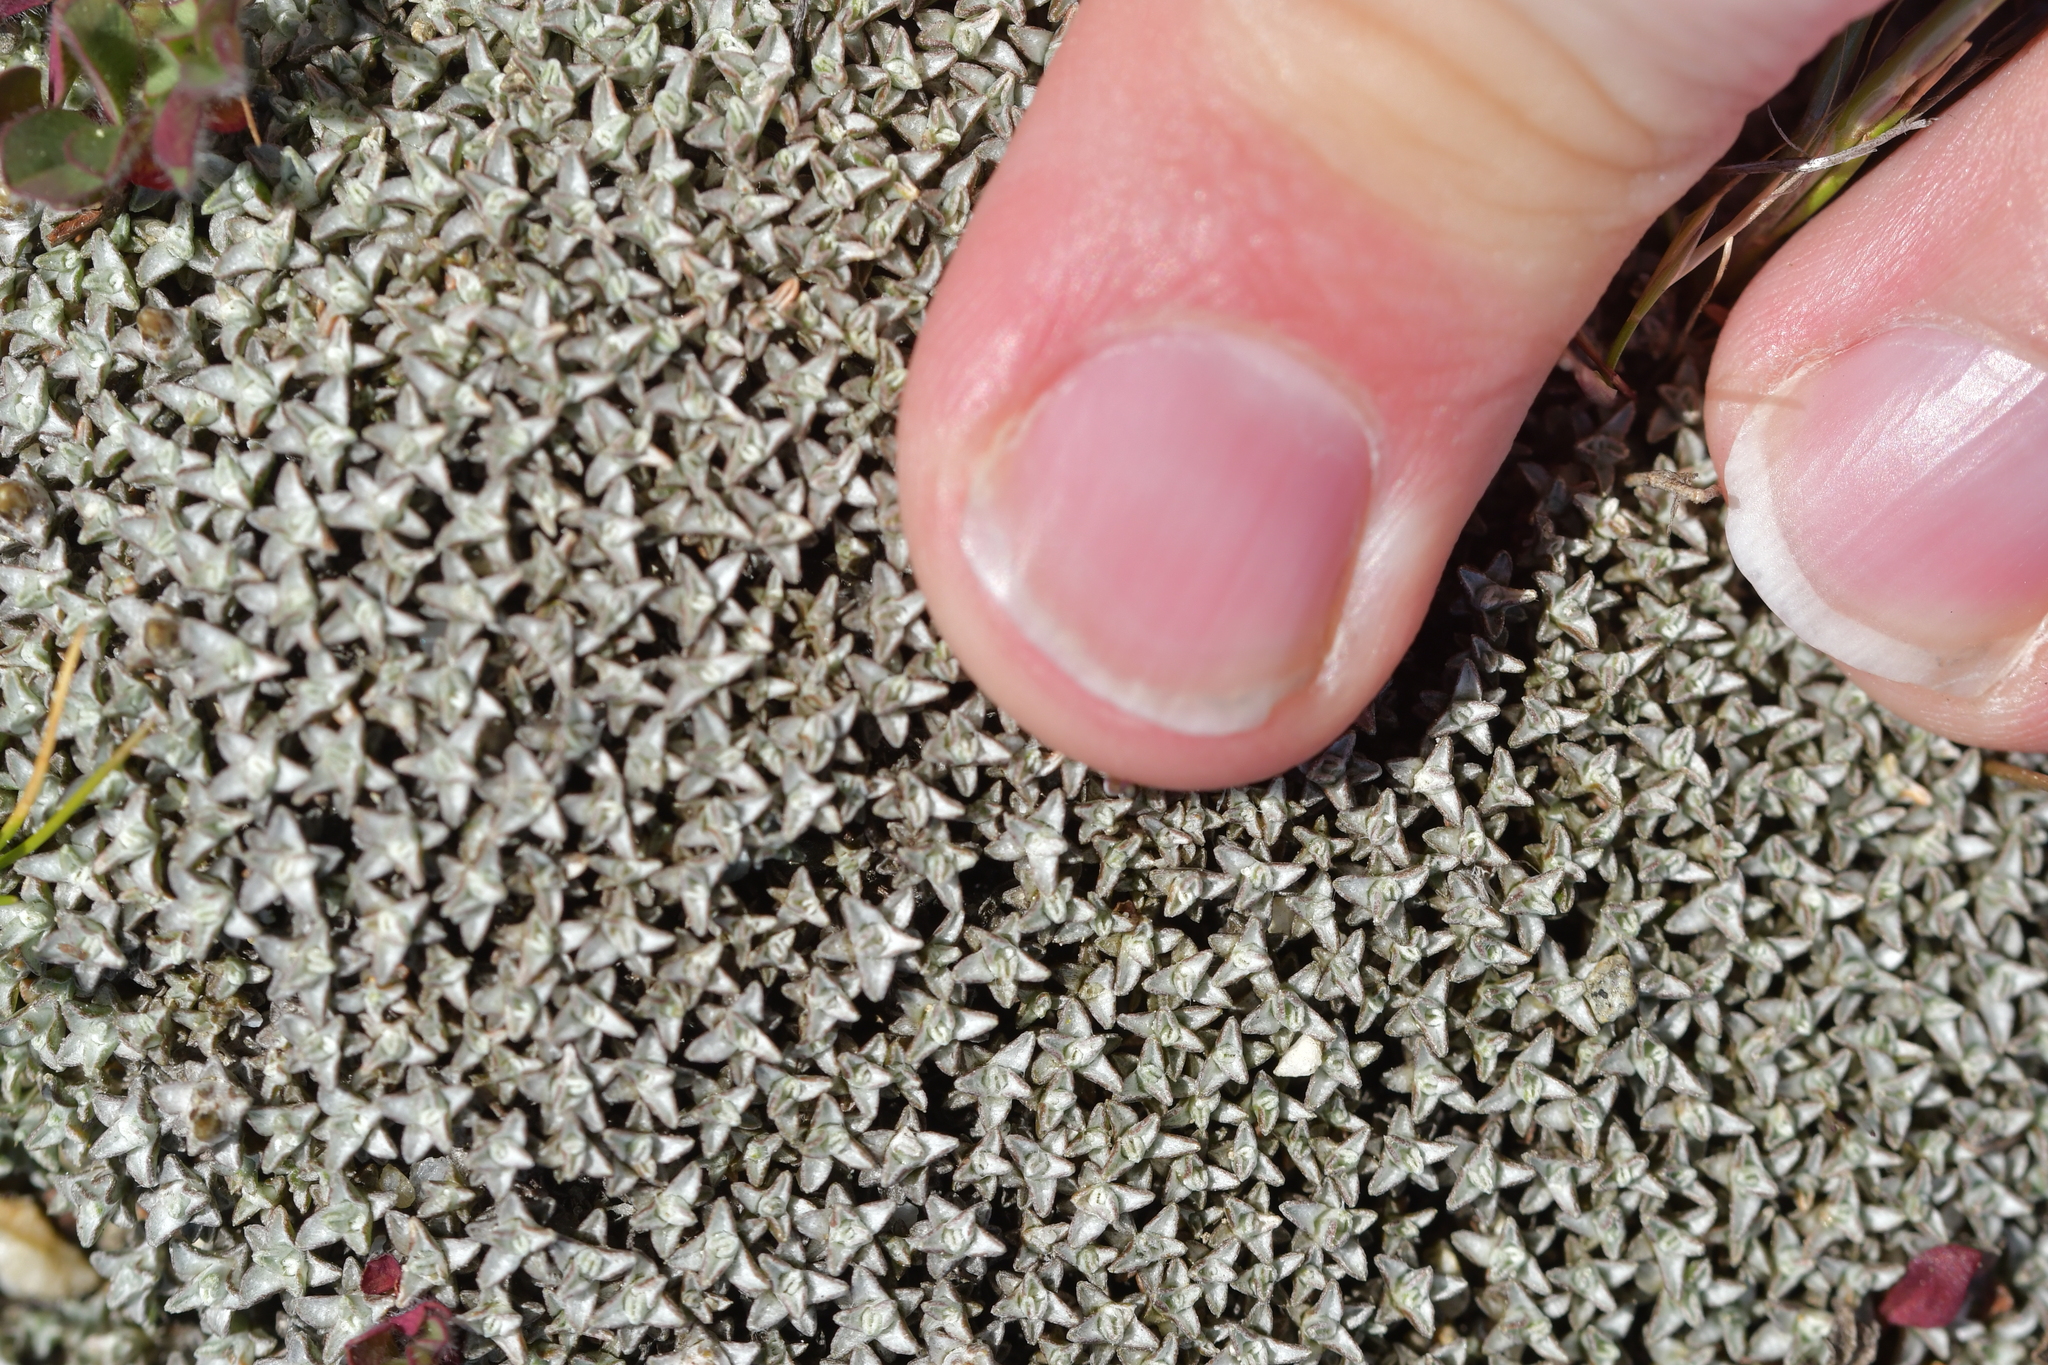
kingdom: Plantae
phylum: Tracheophyta
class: Magnoliopsida
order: Asterales
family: Asteraceae
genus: Raoulia
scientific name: Raoulia beauverdii
